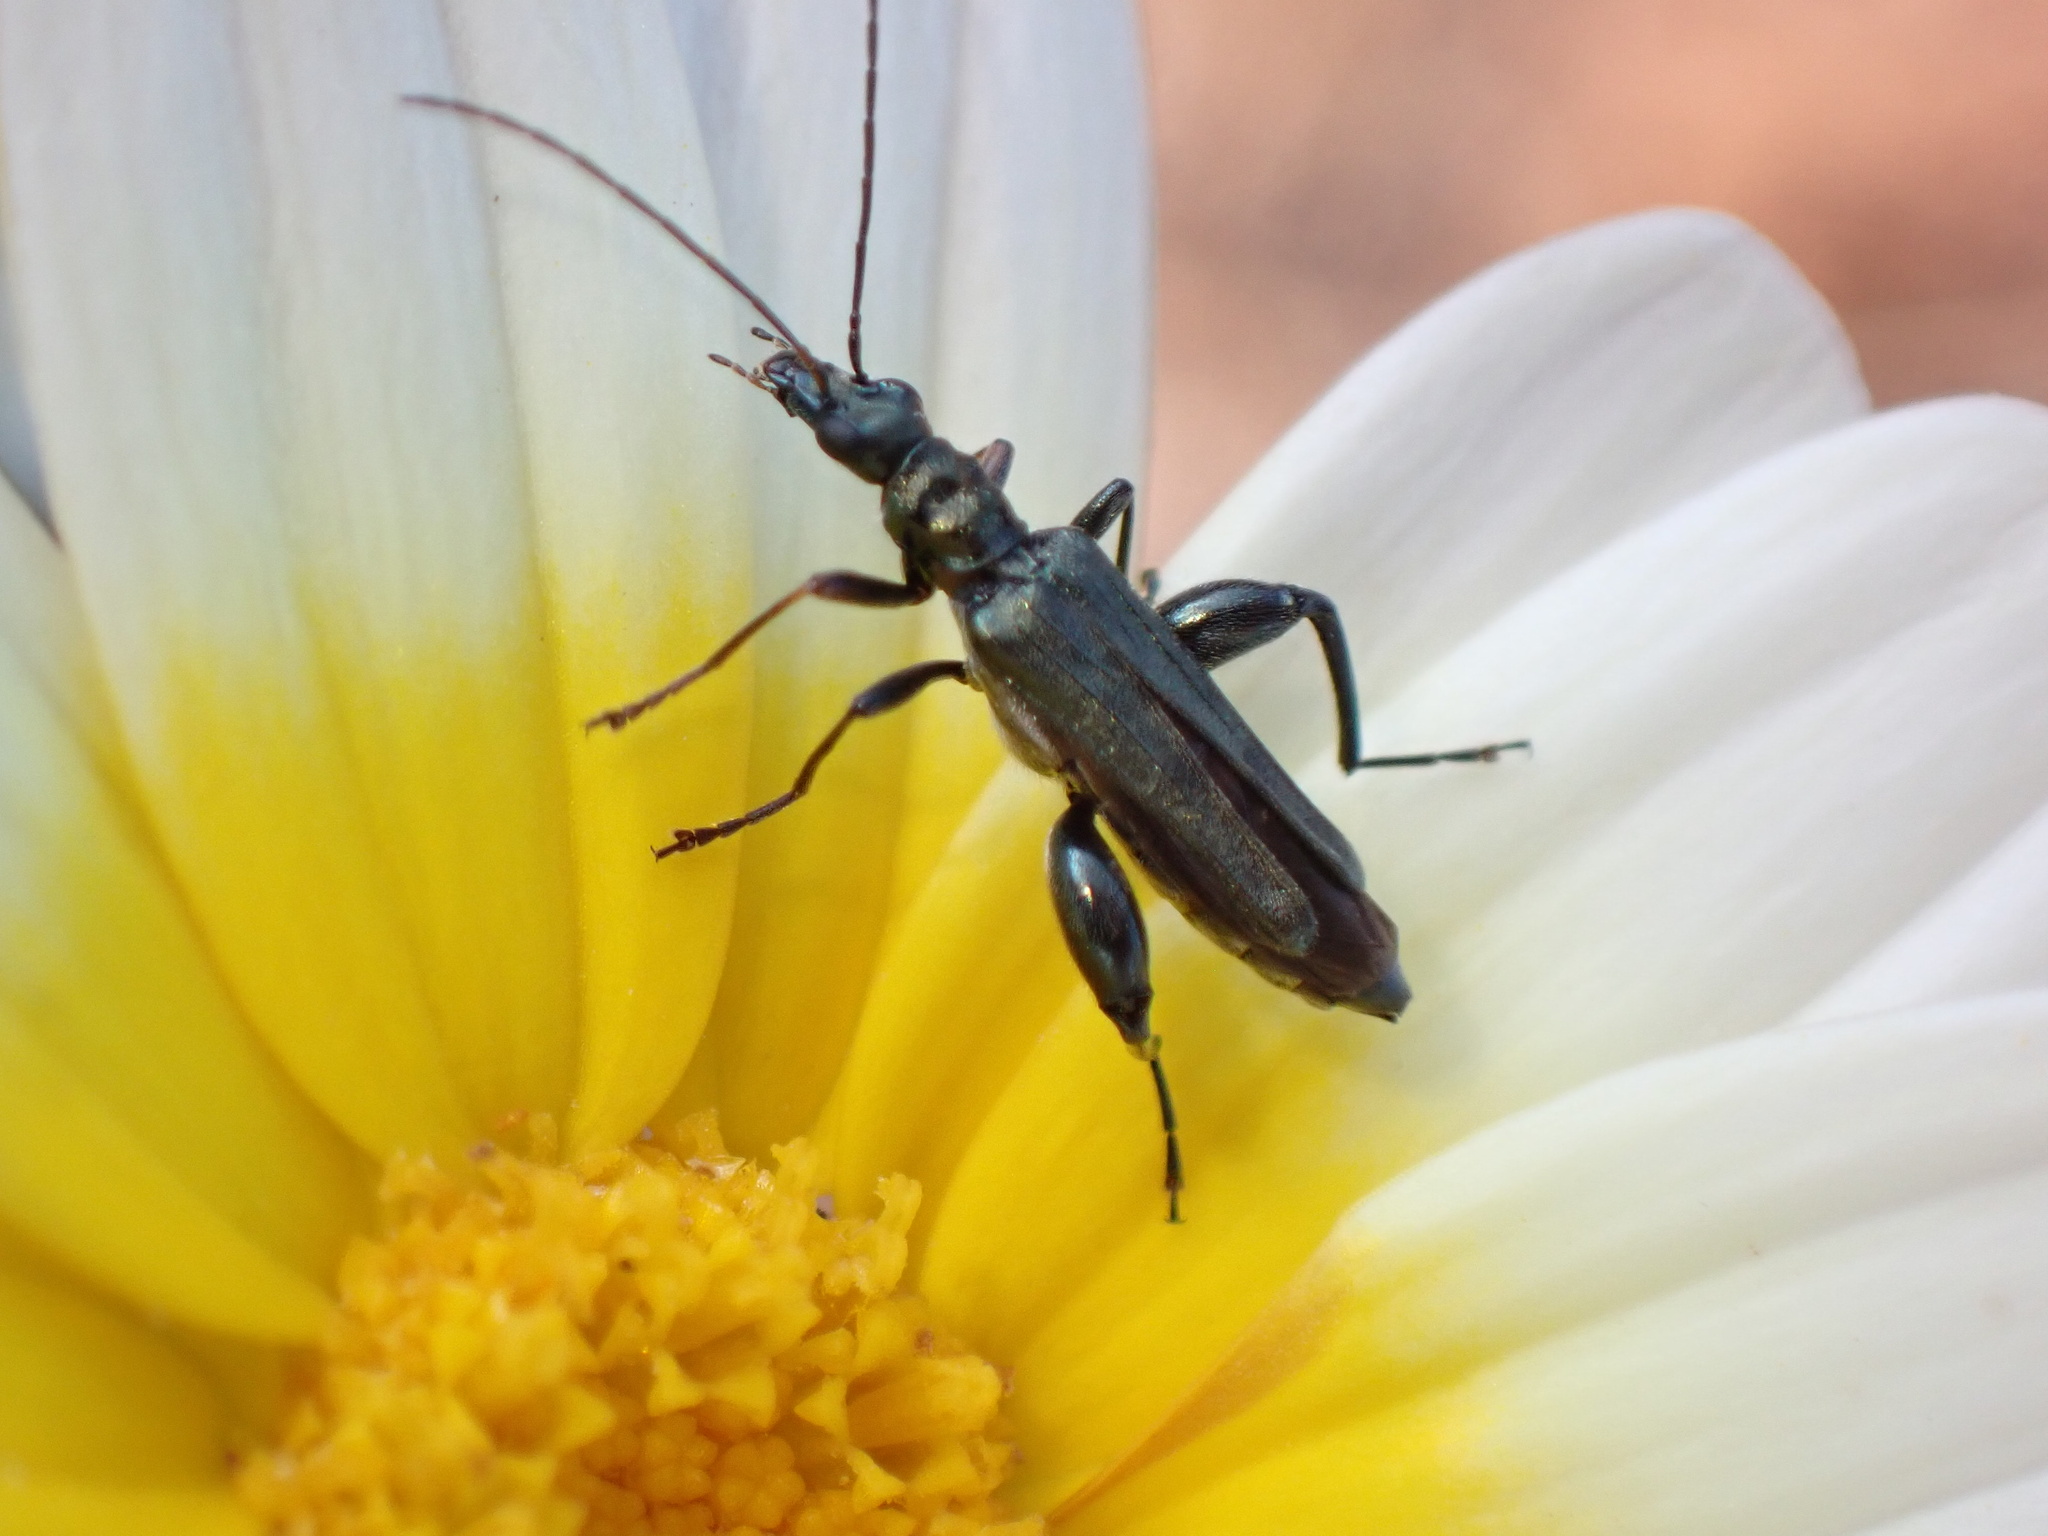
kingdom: Animalia
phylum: Arthropoda
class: Insecta
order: Coleoptera
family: Oedemeridae
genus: Oedemera
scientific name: Oedemera crassipes
